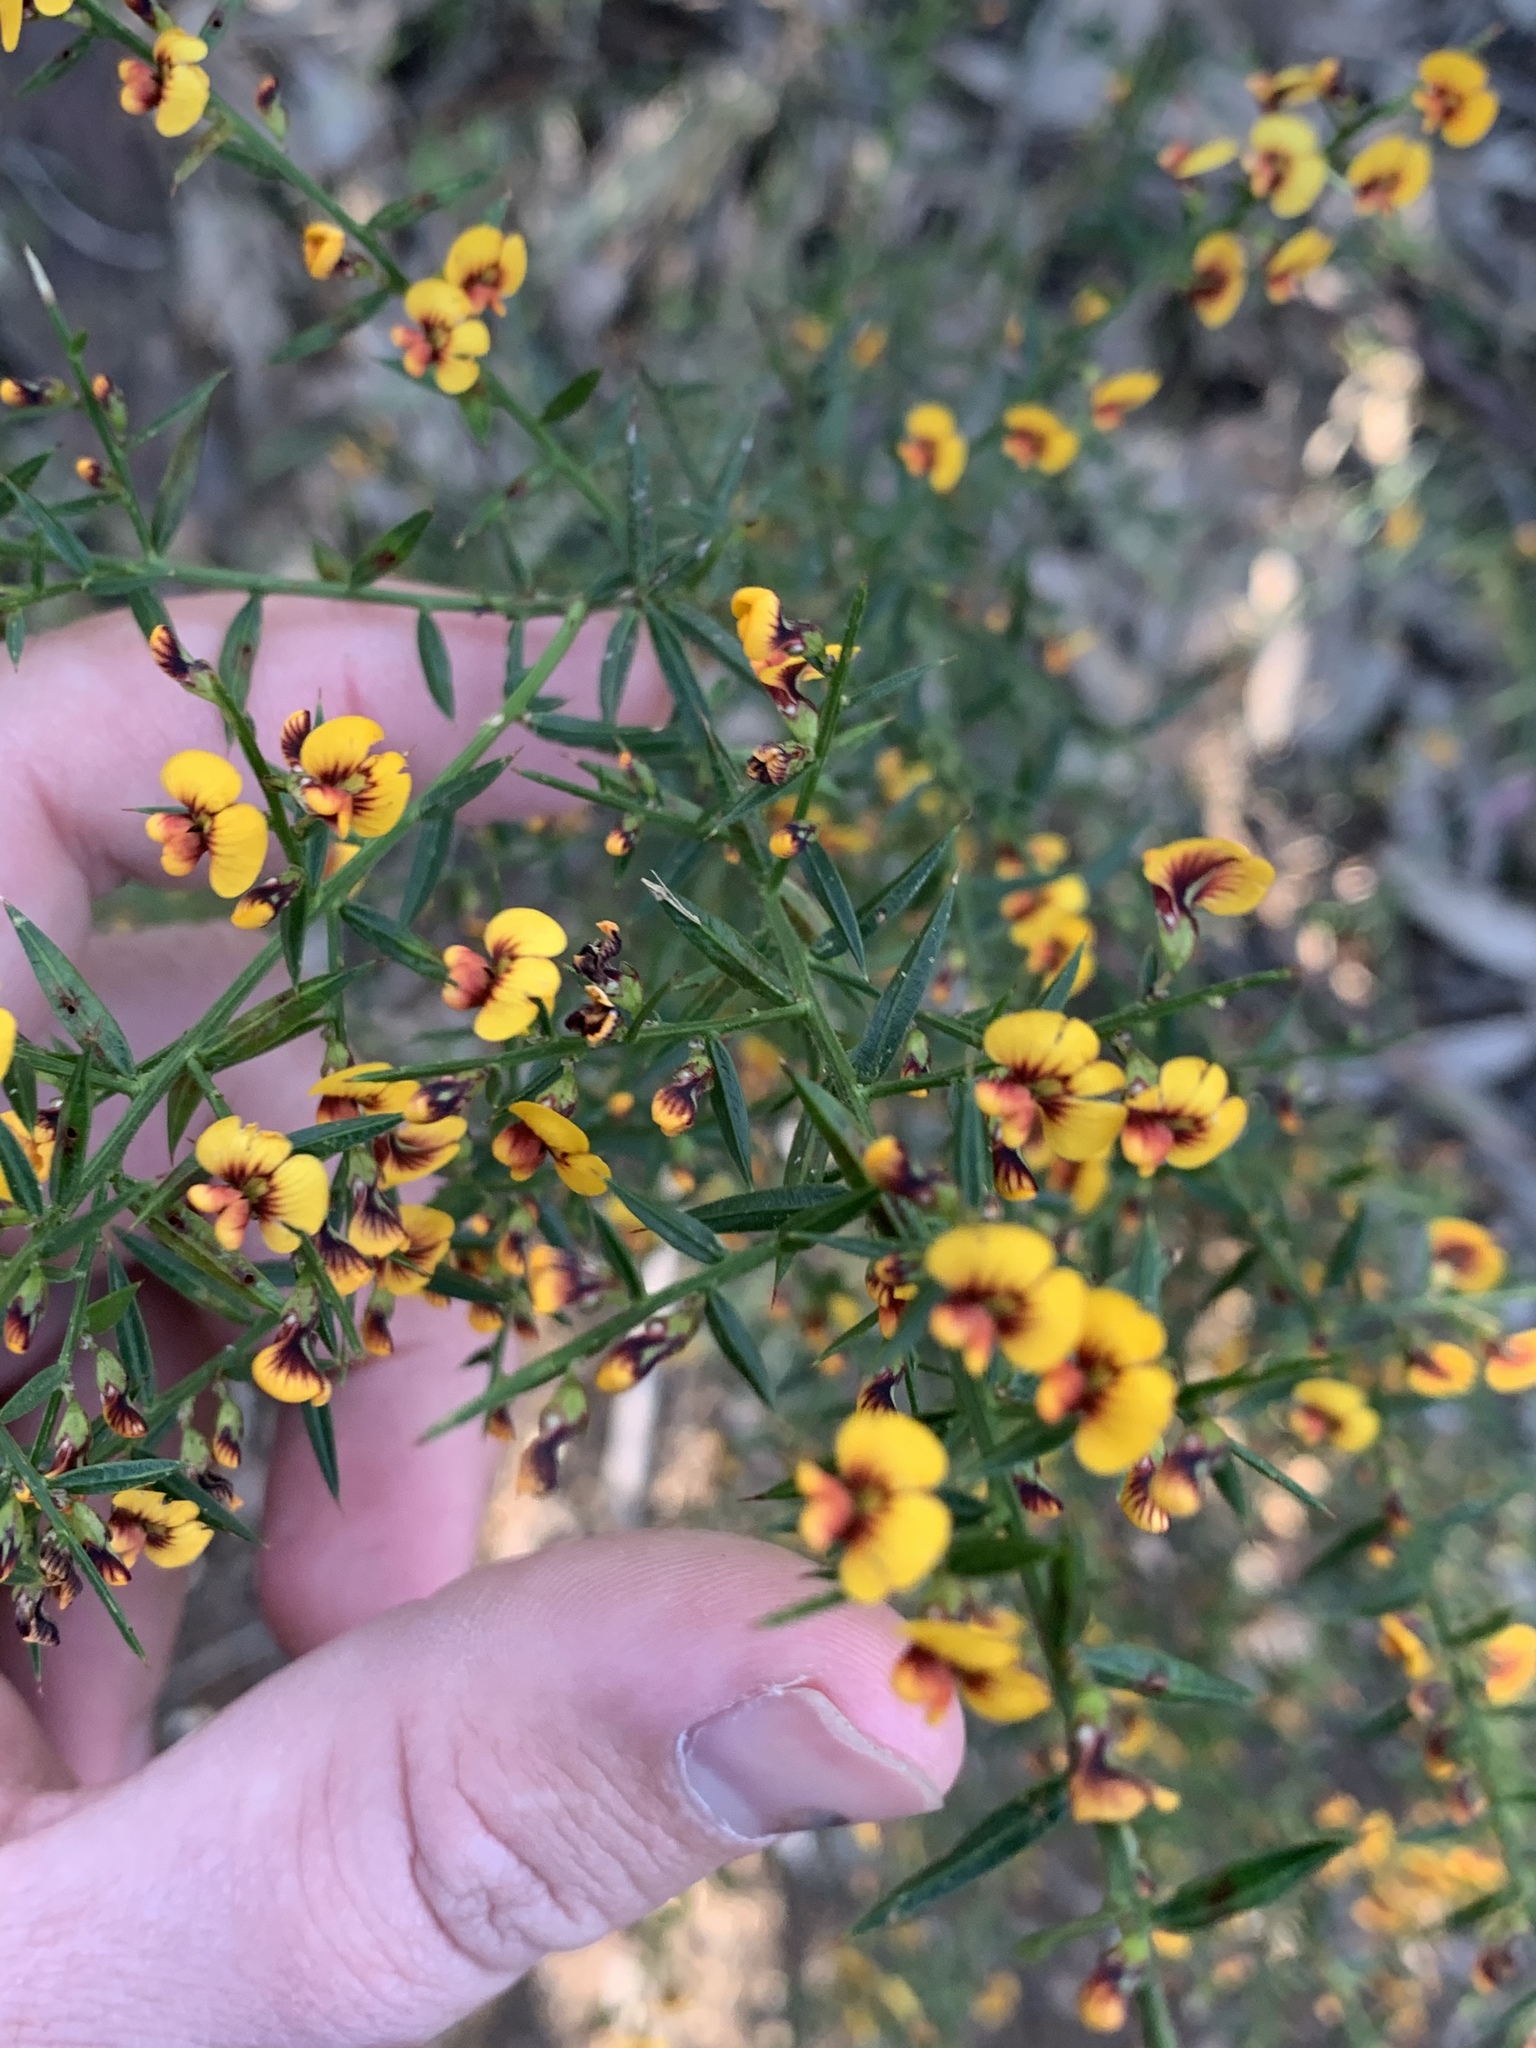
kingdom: Plantae
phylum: Tracheophyta
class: Magnoliopsida
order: Fabales
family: Fabaceae
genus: Daviesia
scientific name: Daviesia ulicifolia
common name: Gorse bitter-pea
